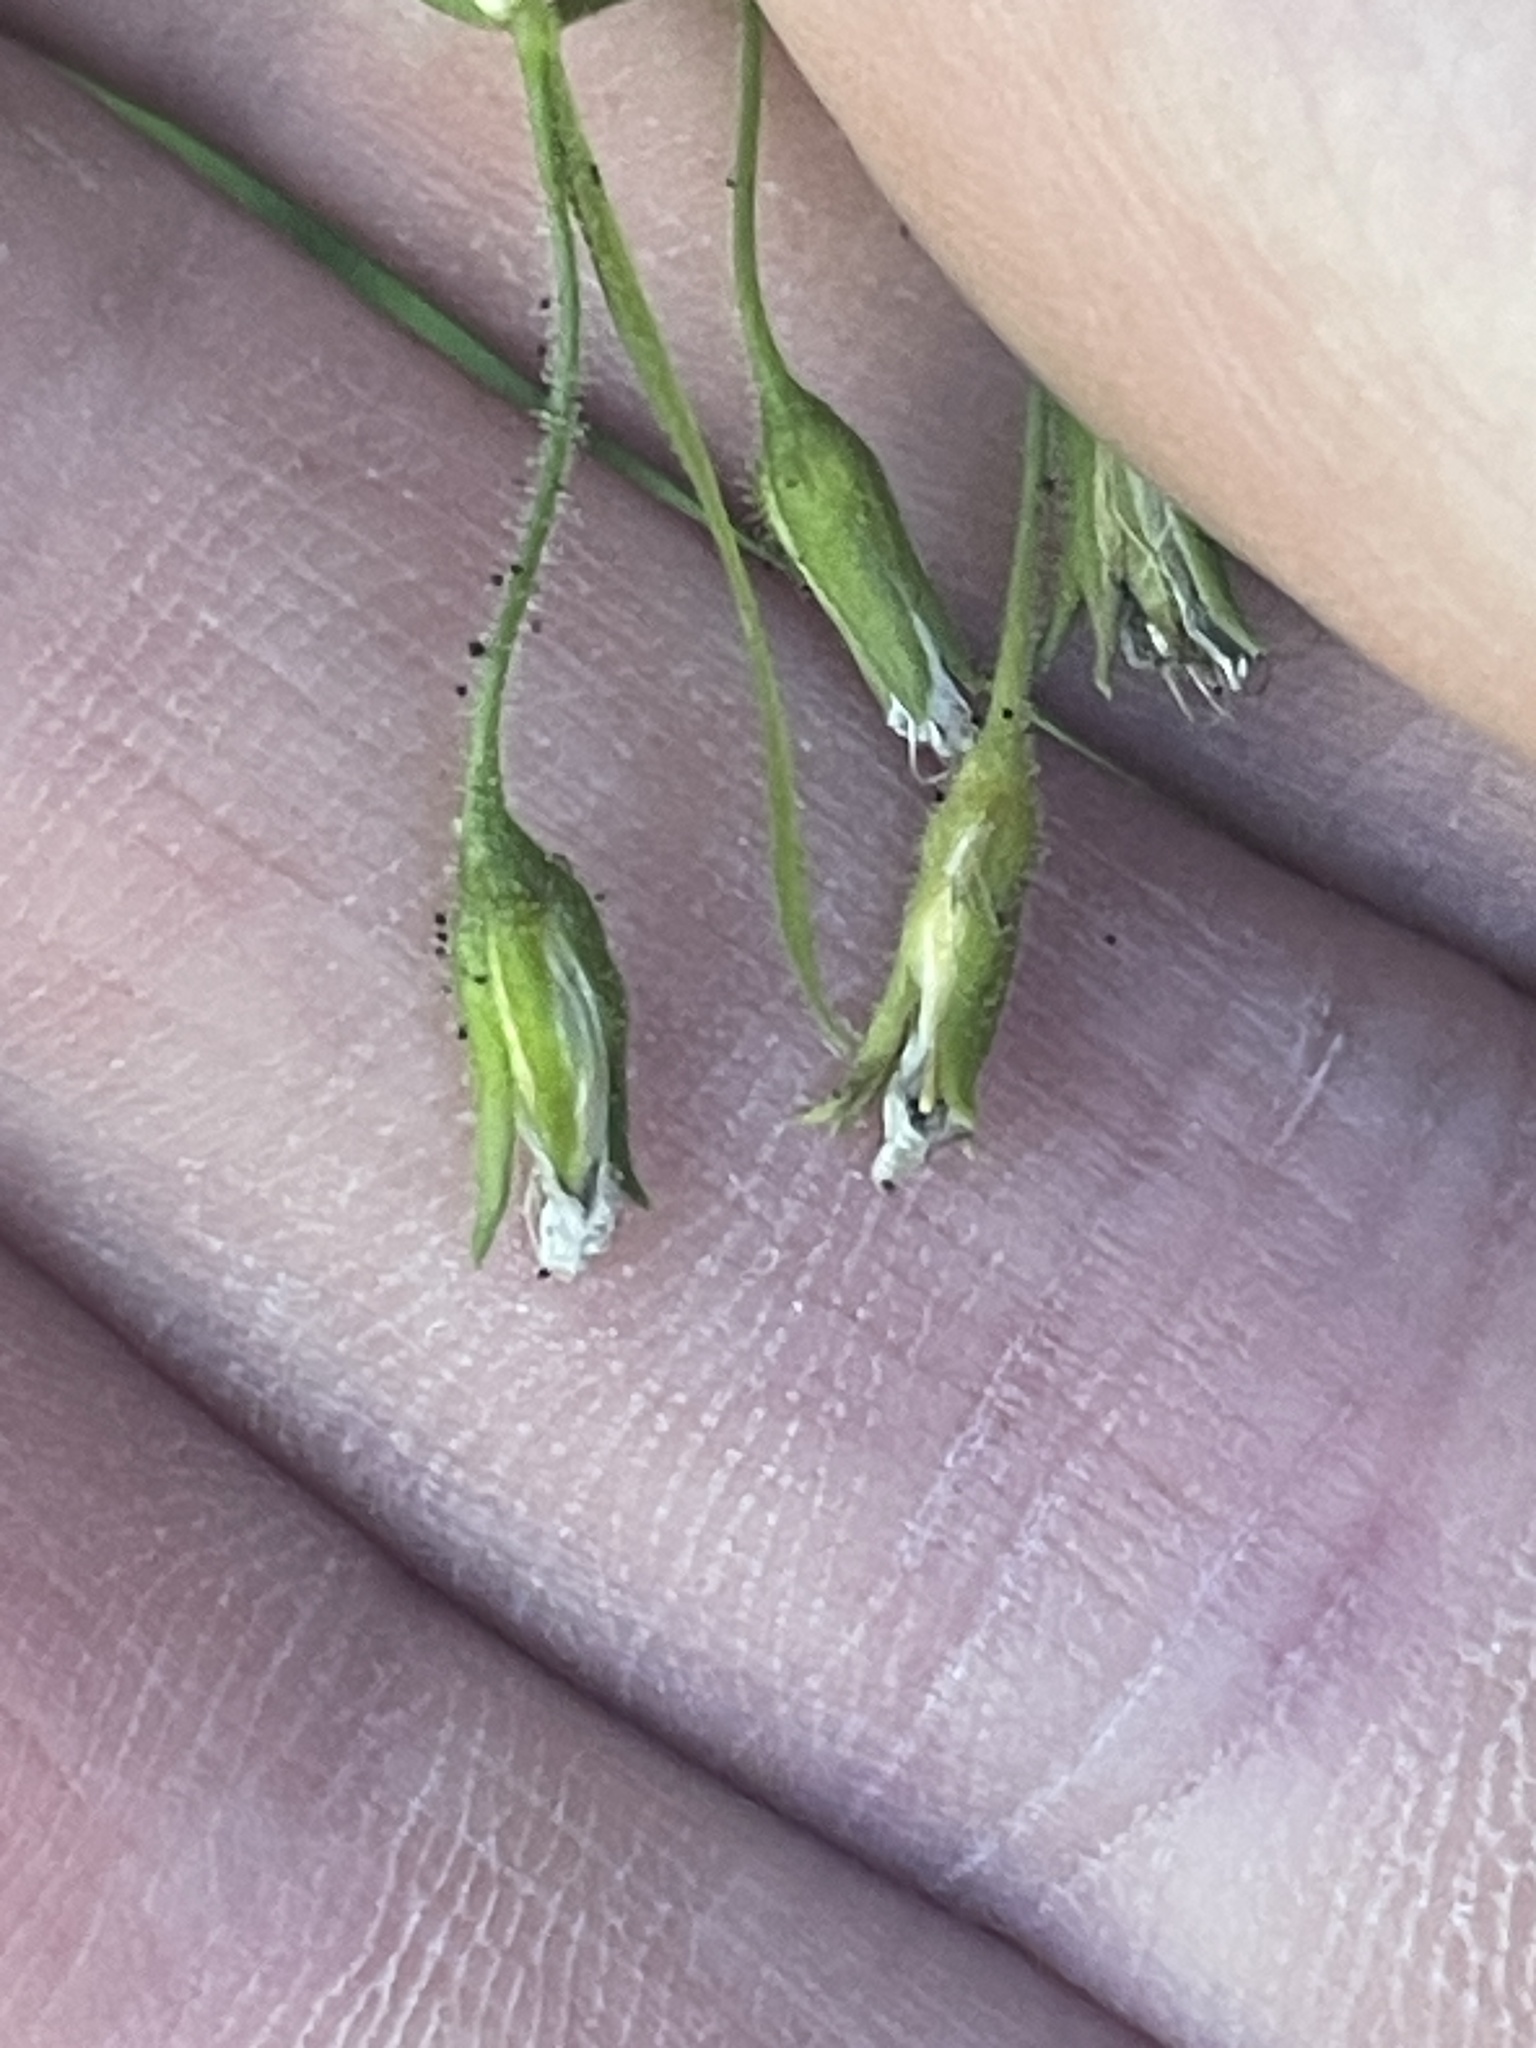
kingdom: Plantae
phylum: Tracheophyta
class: Magnoliopsida
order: Caryophyllales
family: Caryophyllaceae
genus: Schizotechium
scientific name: Schizotechium jamesianum
